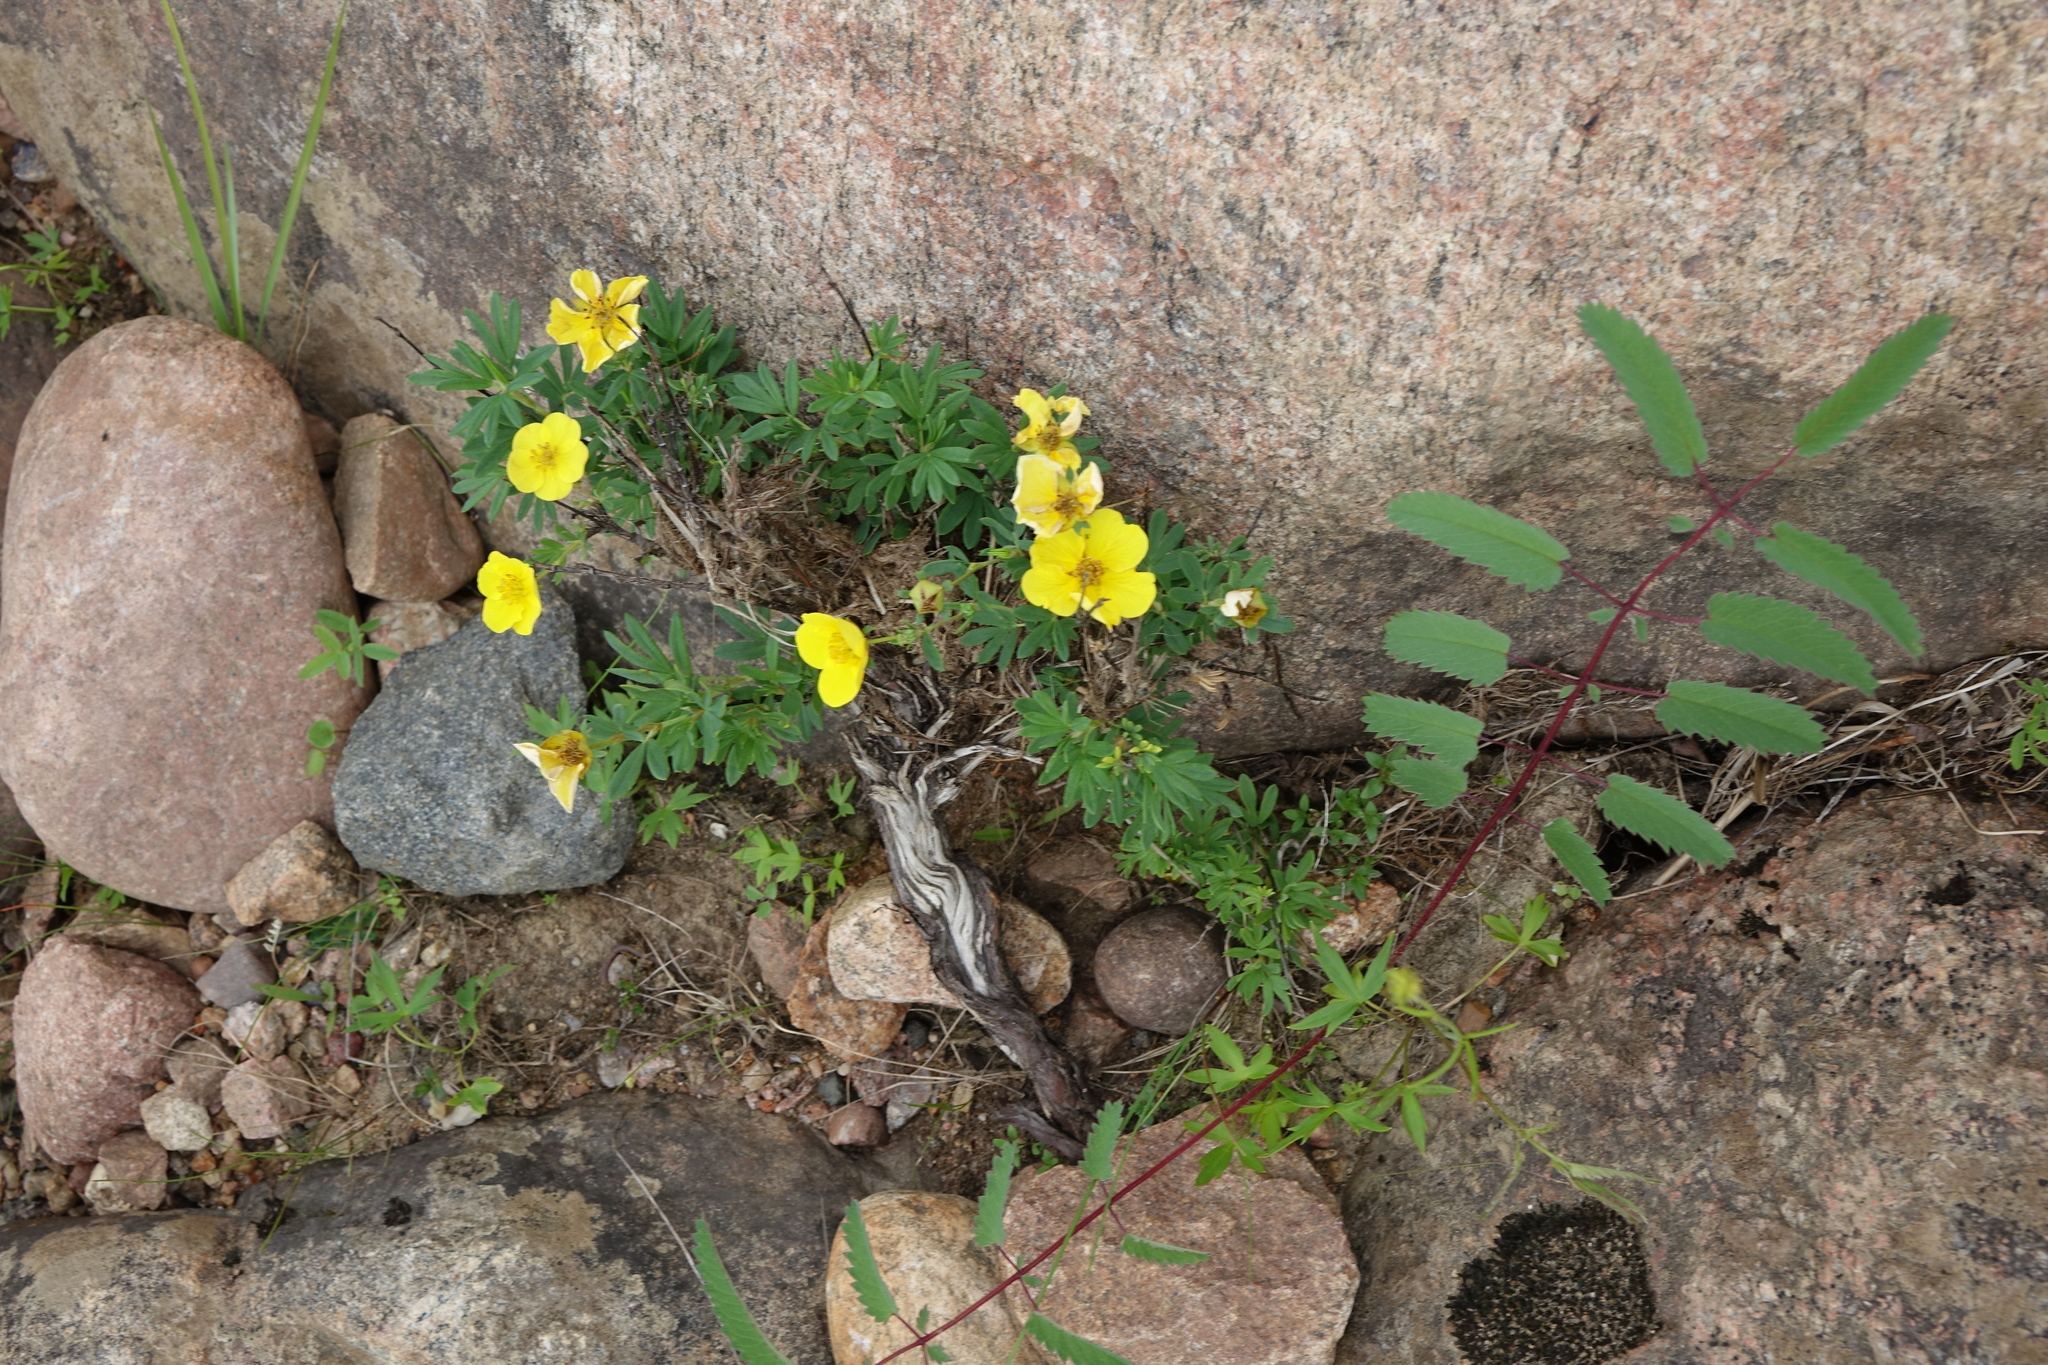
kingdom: Plantae
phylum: Tracheophyta
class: Magnoliopsida
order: Rosales
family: Rosaceae
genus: Dasiphora
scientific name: Dasiphora fruticosa
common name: Shrubby cinquefoil
